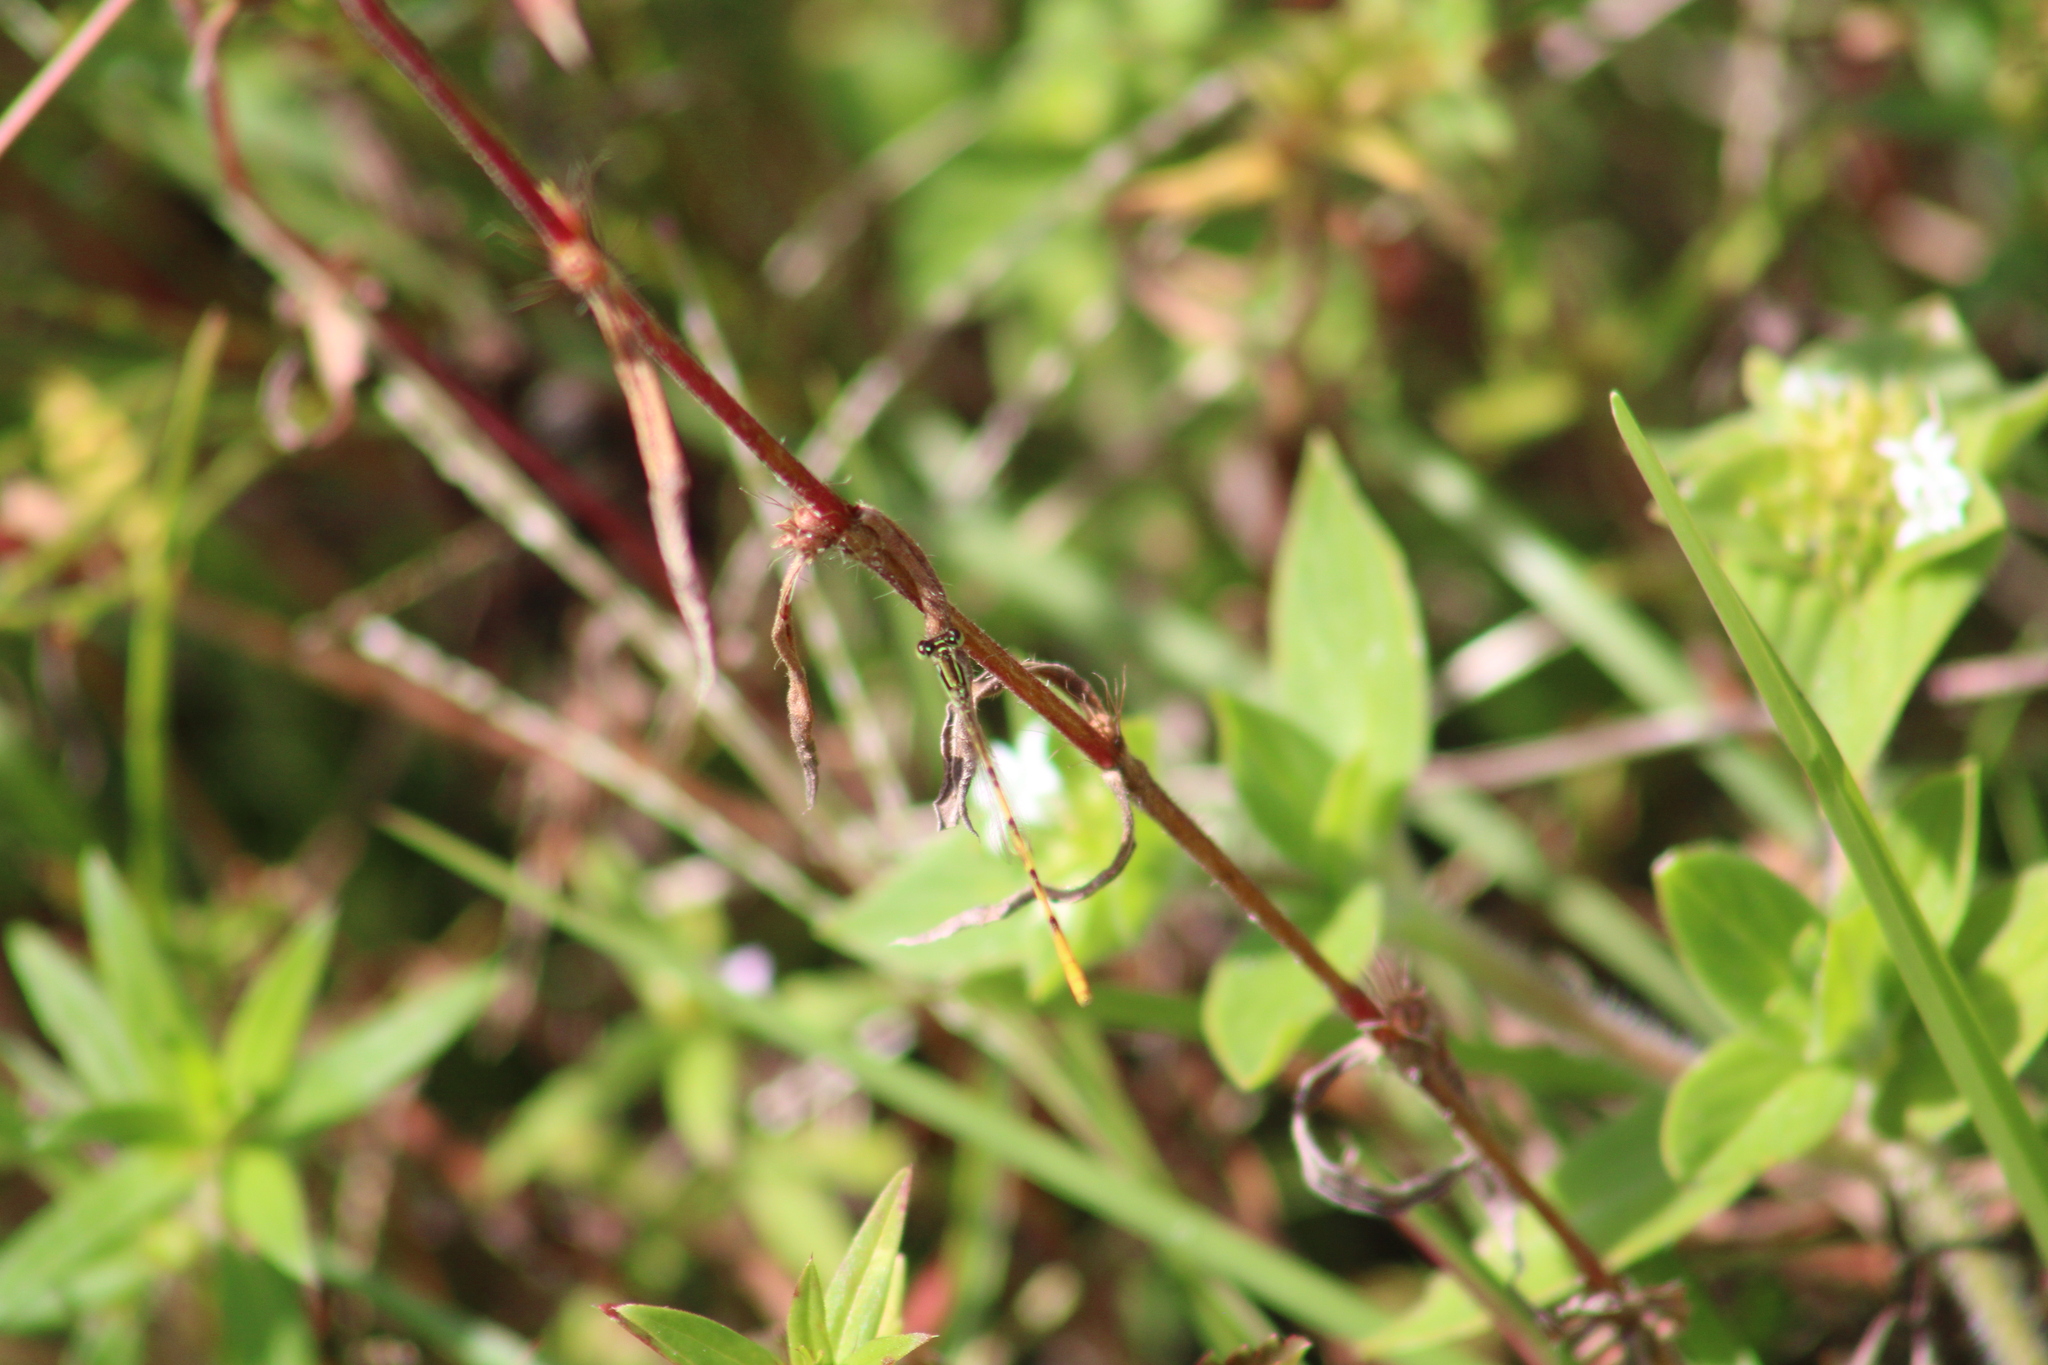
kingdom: Animalia
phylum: Arthropoda
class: Insecta
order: Odonata
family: Coenagrionidae
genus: Ischnura
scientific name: Ischnura hastata
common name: Citrine forktail
